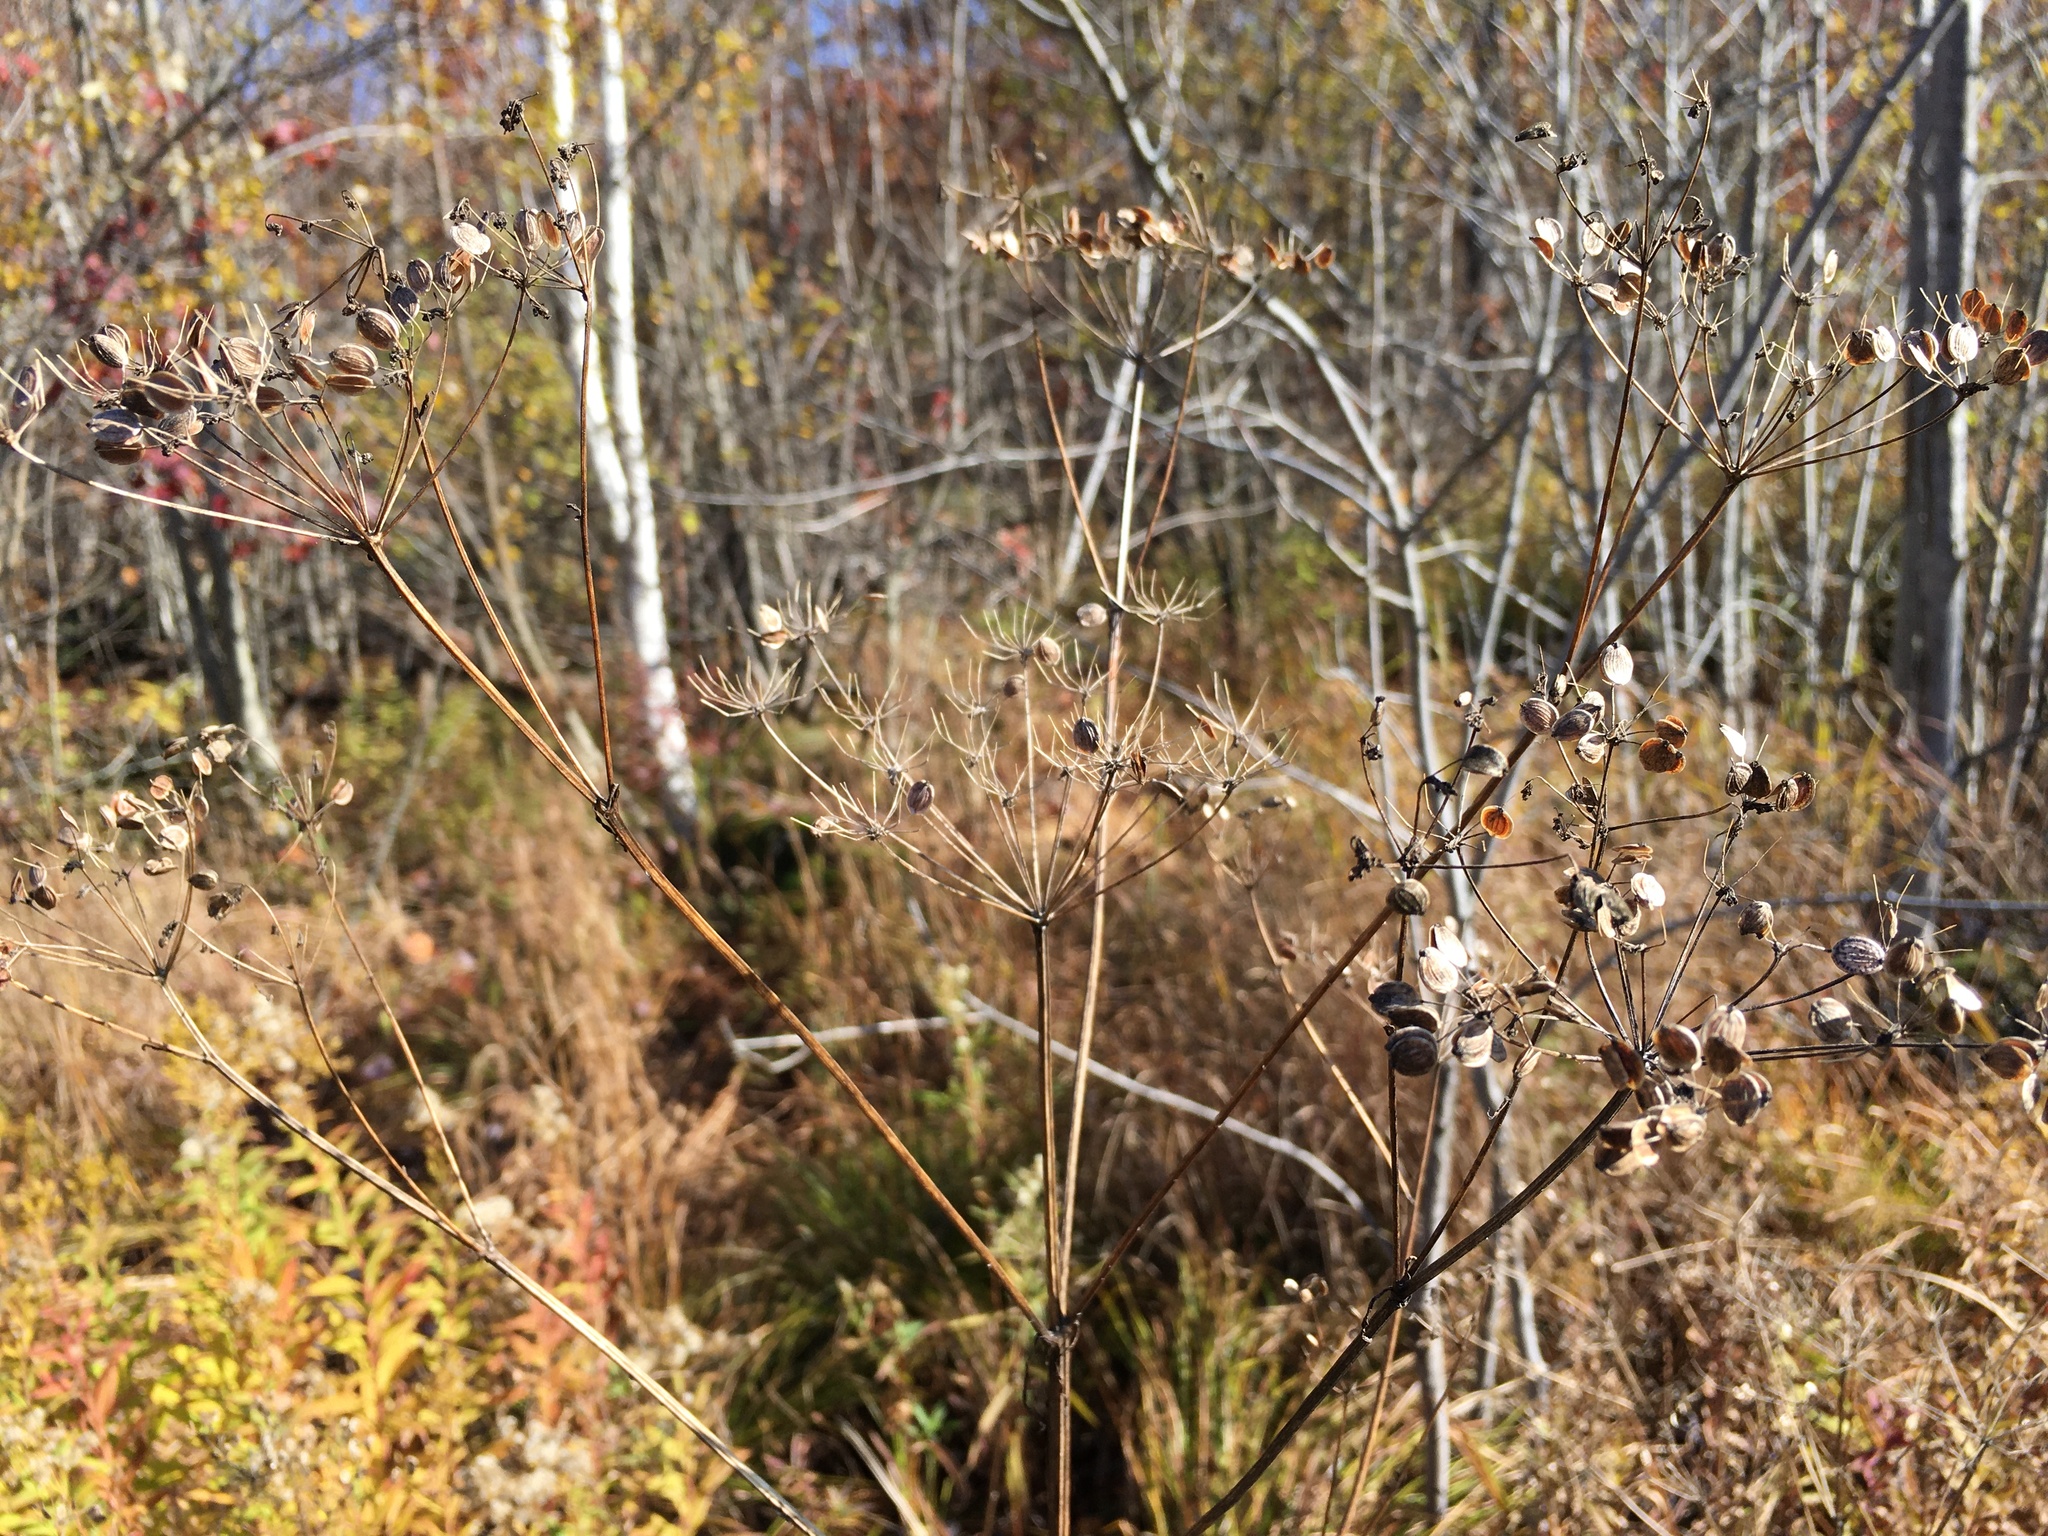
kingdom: Plantae
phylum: Tracheophyta
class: Magnoliopsida
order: Apiales
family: Apiaceae
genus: Pastinaca
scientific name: Pastinaca sativa
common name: Wild parsnip
